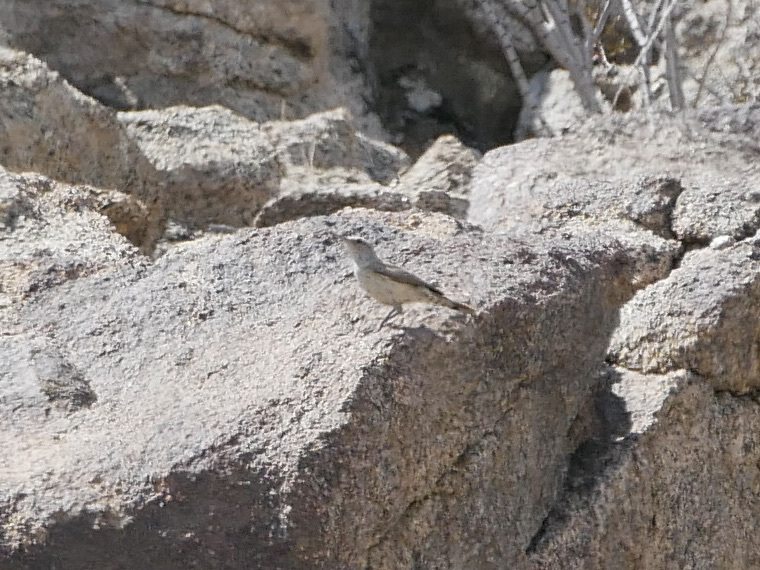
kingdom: Animalia
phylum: Chordata
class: Aves
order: Passeriformes
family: Troglodytidae
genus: Salpinctes
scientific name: Salpinctes obsoletus
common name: Rock wren
